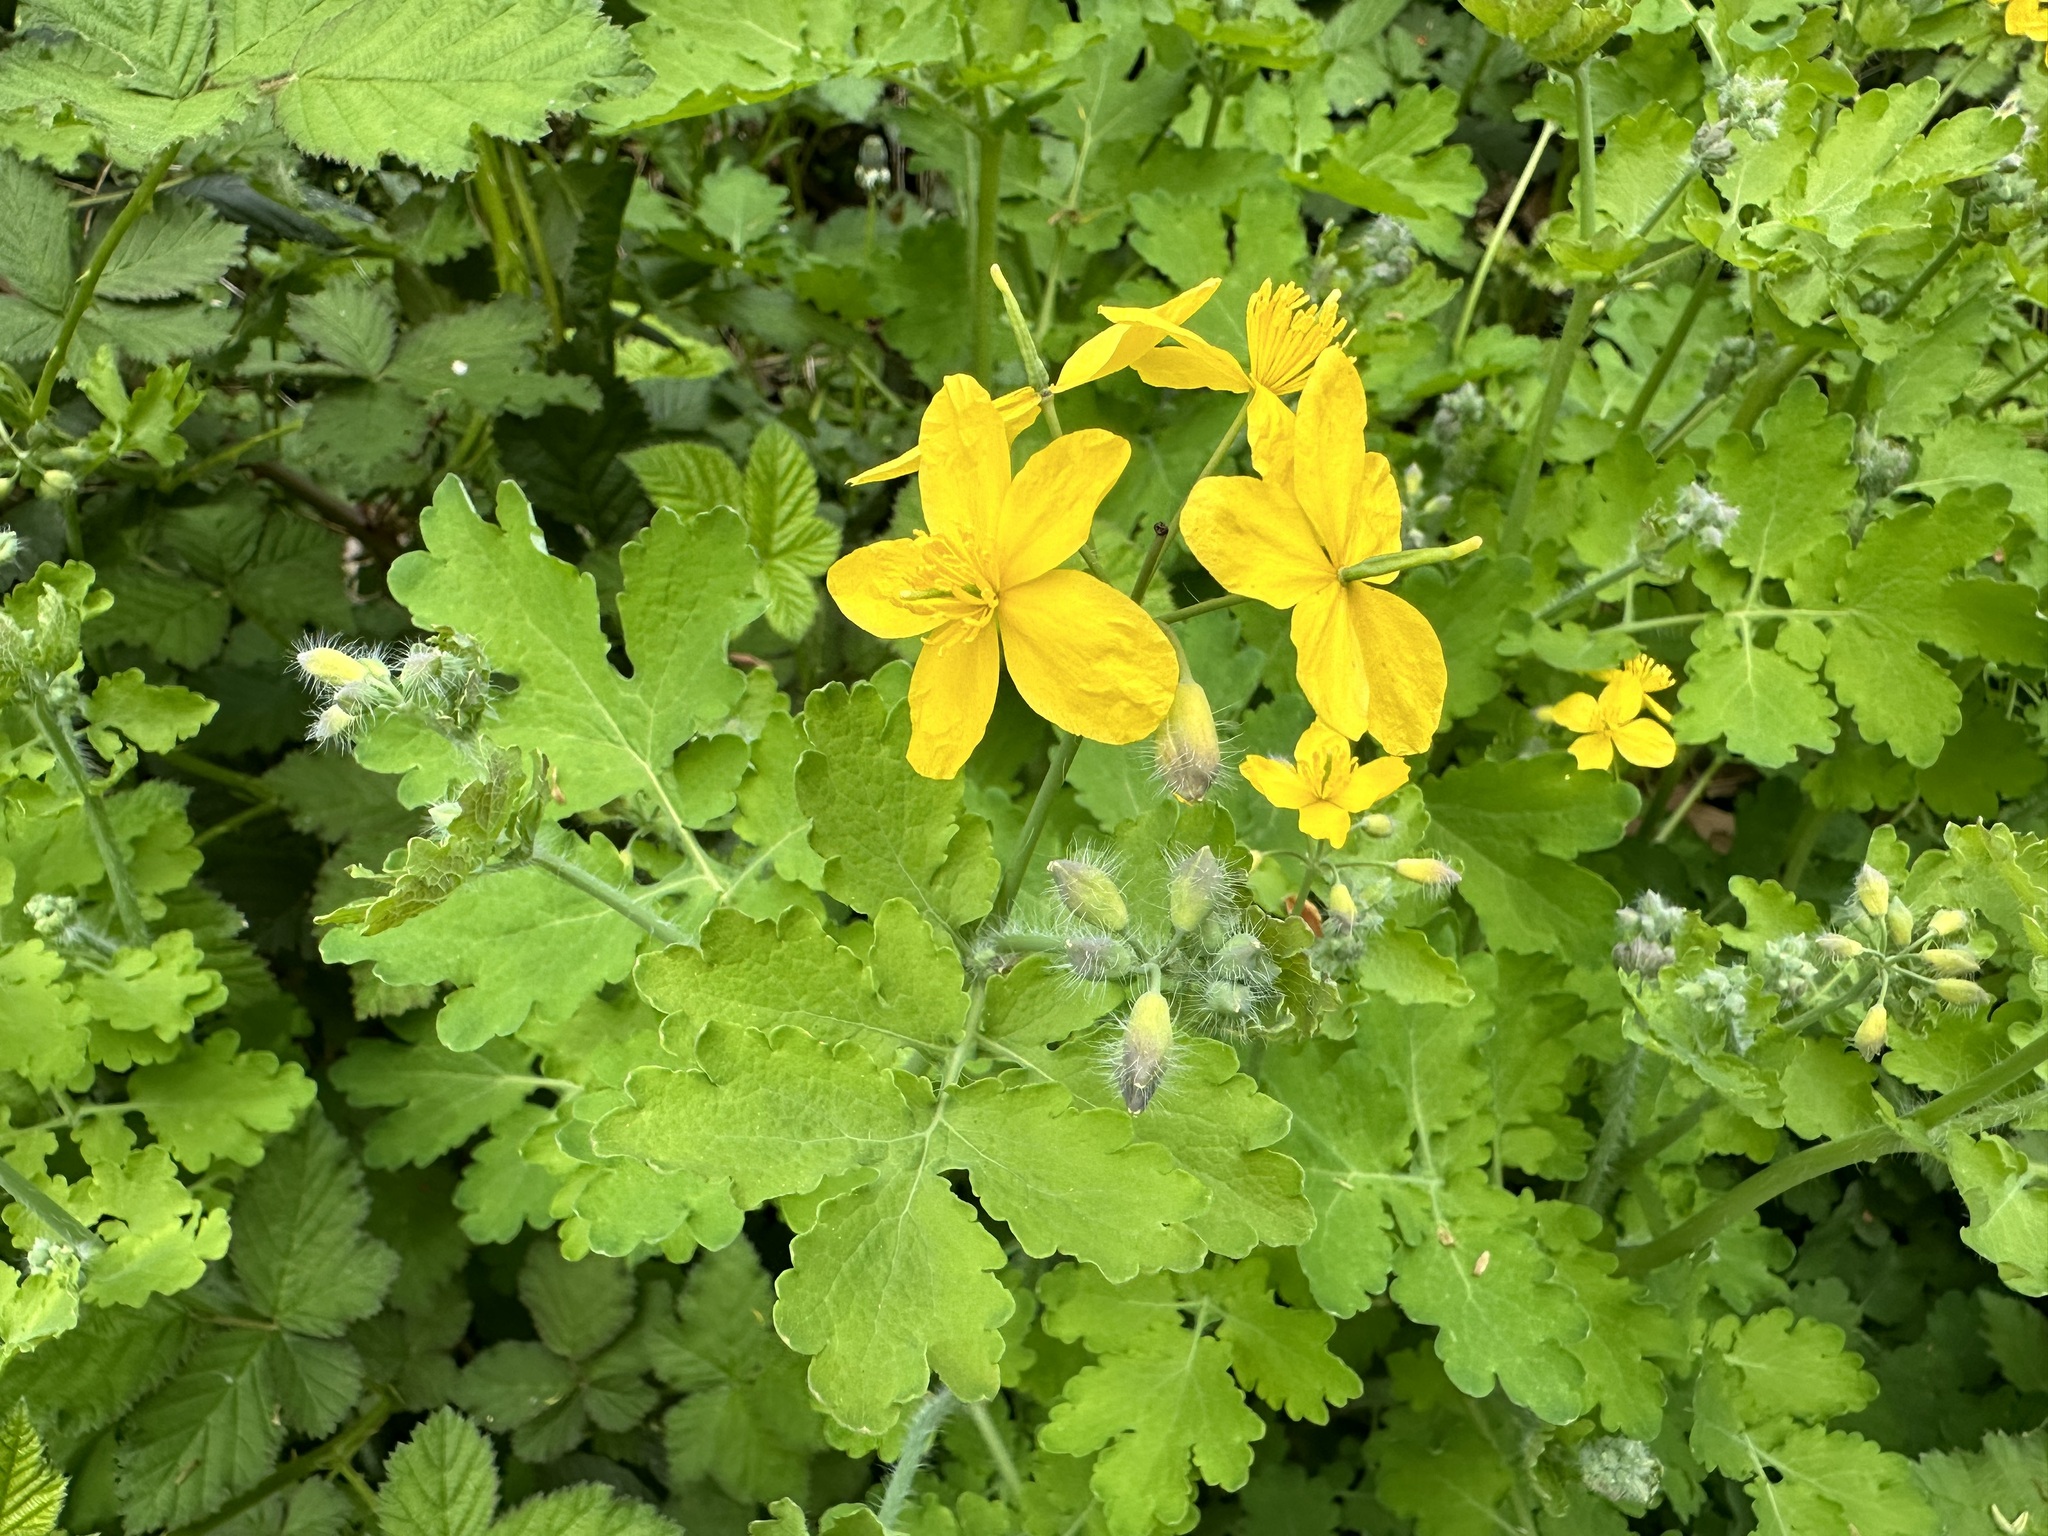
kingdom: Plantae
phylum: Tracheophyta
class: Magnoliopsida
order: Ranunculales
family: Papaveraceae
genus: Chelidonium
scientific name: Chelidonium majus
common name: Greater celandine
